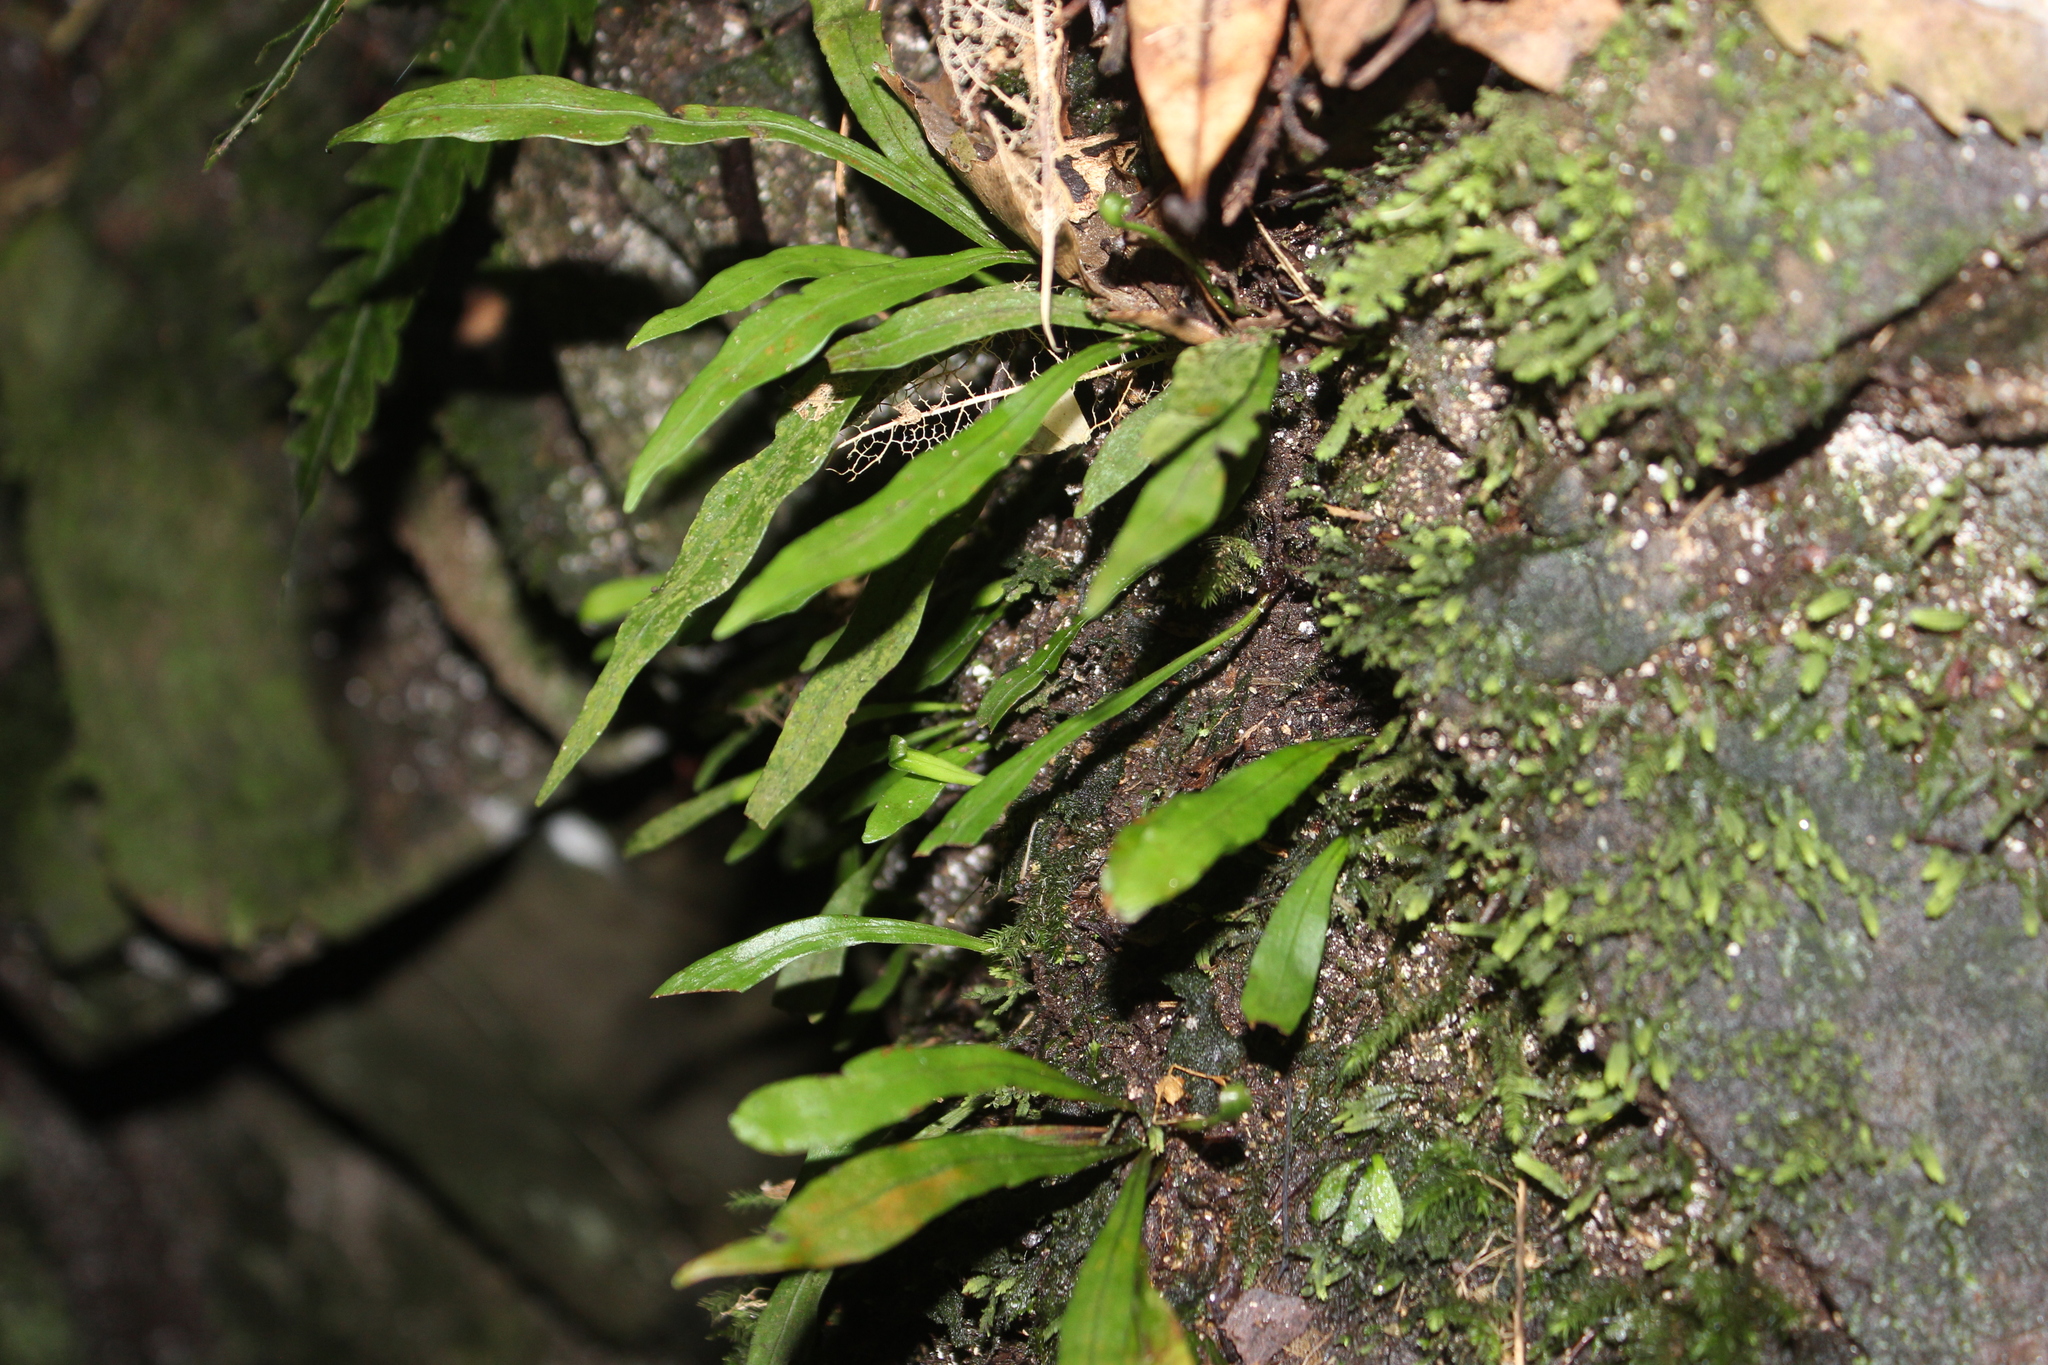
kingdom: Plantae
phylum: Tracheophyta
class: Polypodiopsida
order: Polypodiales
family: Polypodiaceae
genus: Loxogramme
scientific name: Loxogramme dictyopteris
